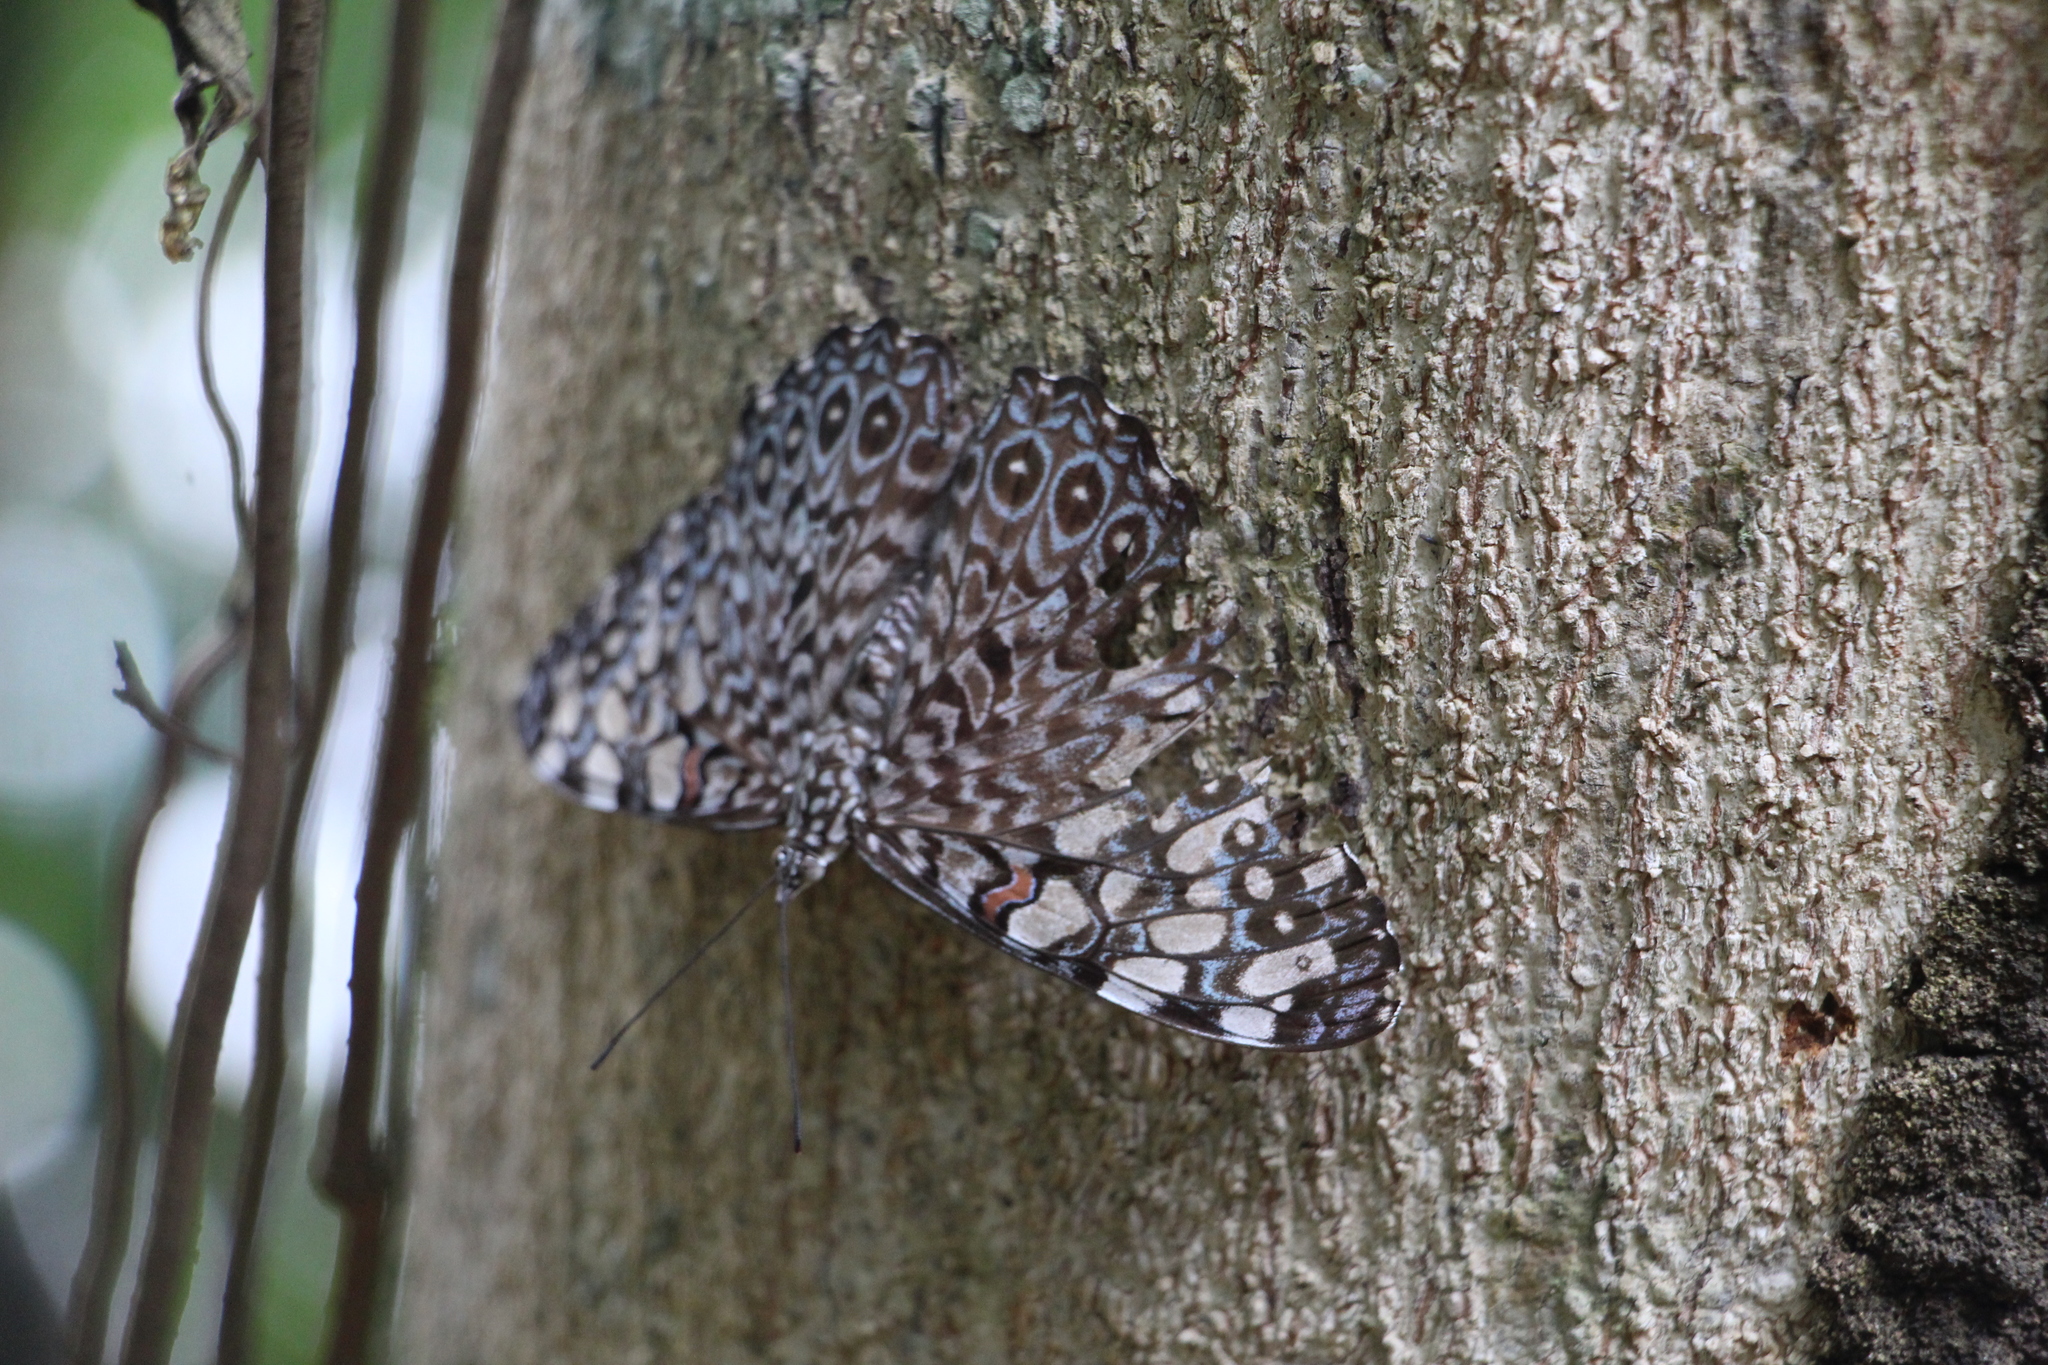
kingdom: Animalia
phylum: Arthropoda
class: Insecta
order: Lepidoptera
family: Nymphalidae
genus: Hamadryas
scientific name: Hamadryas februa
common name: Gray cracker
